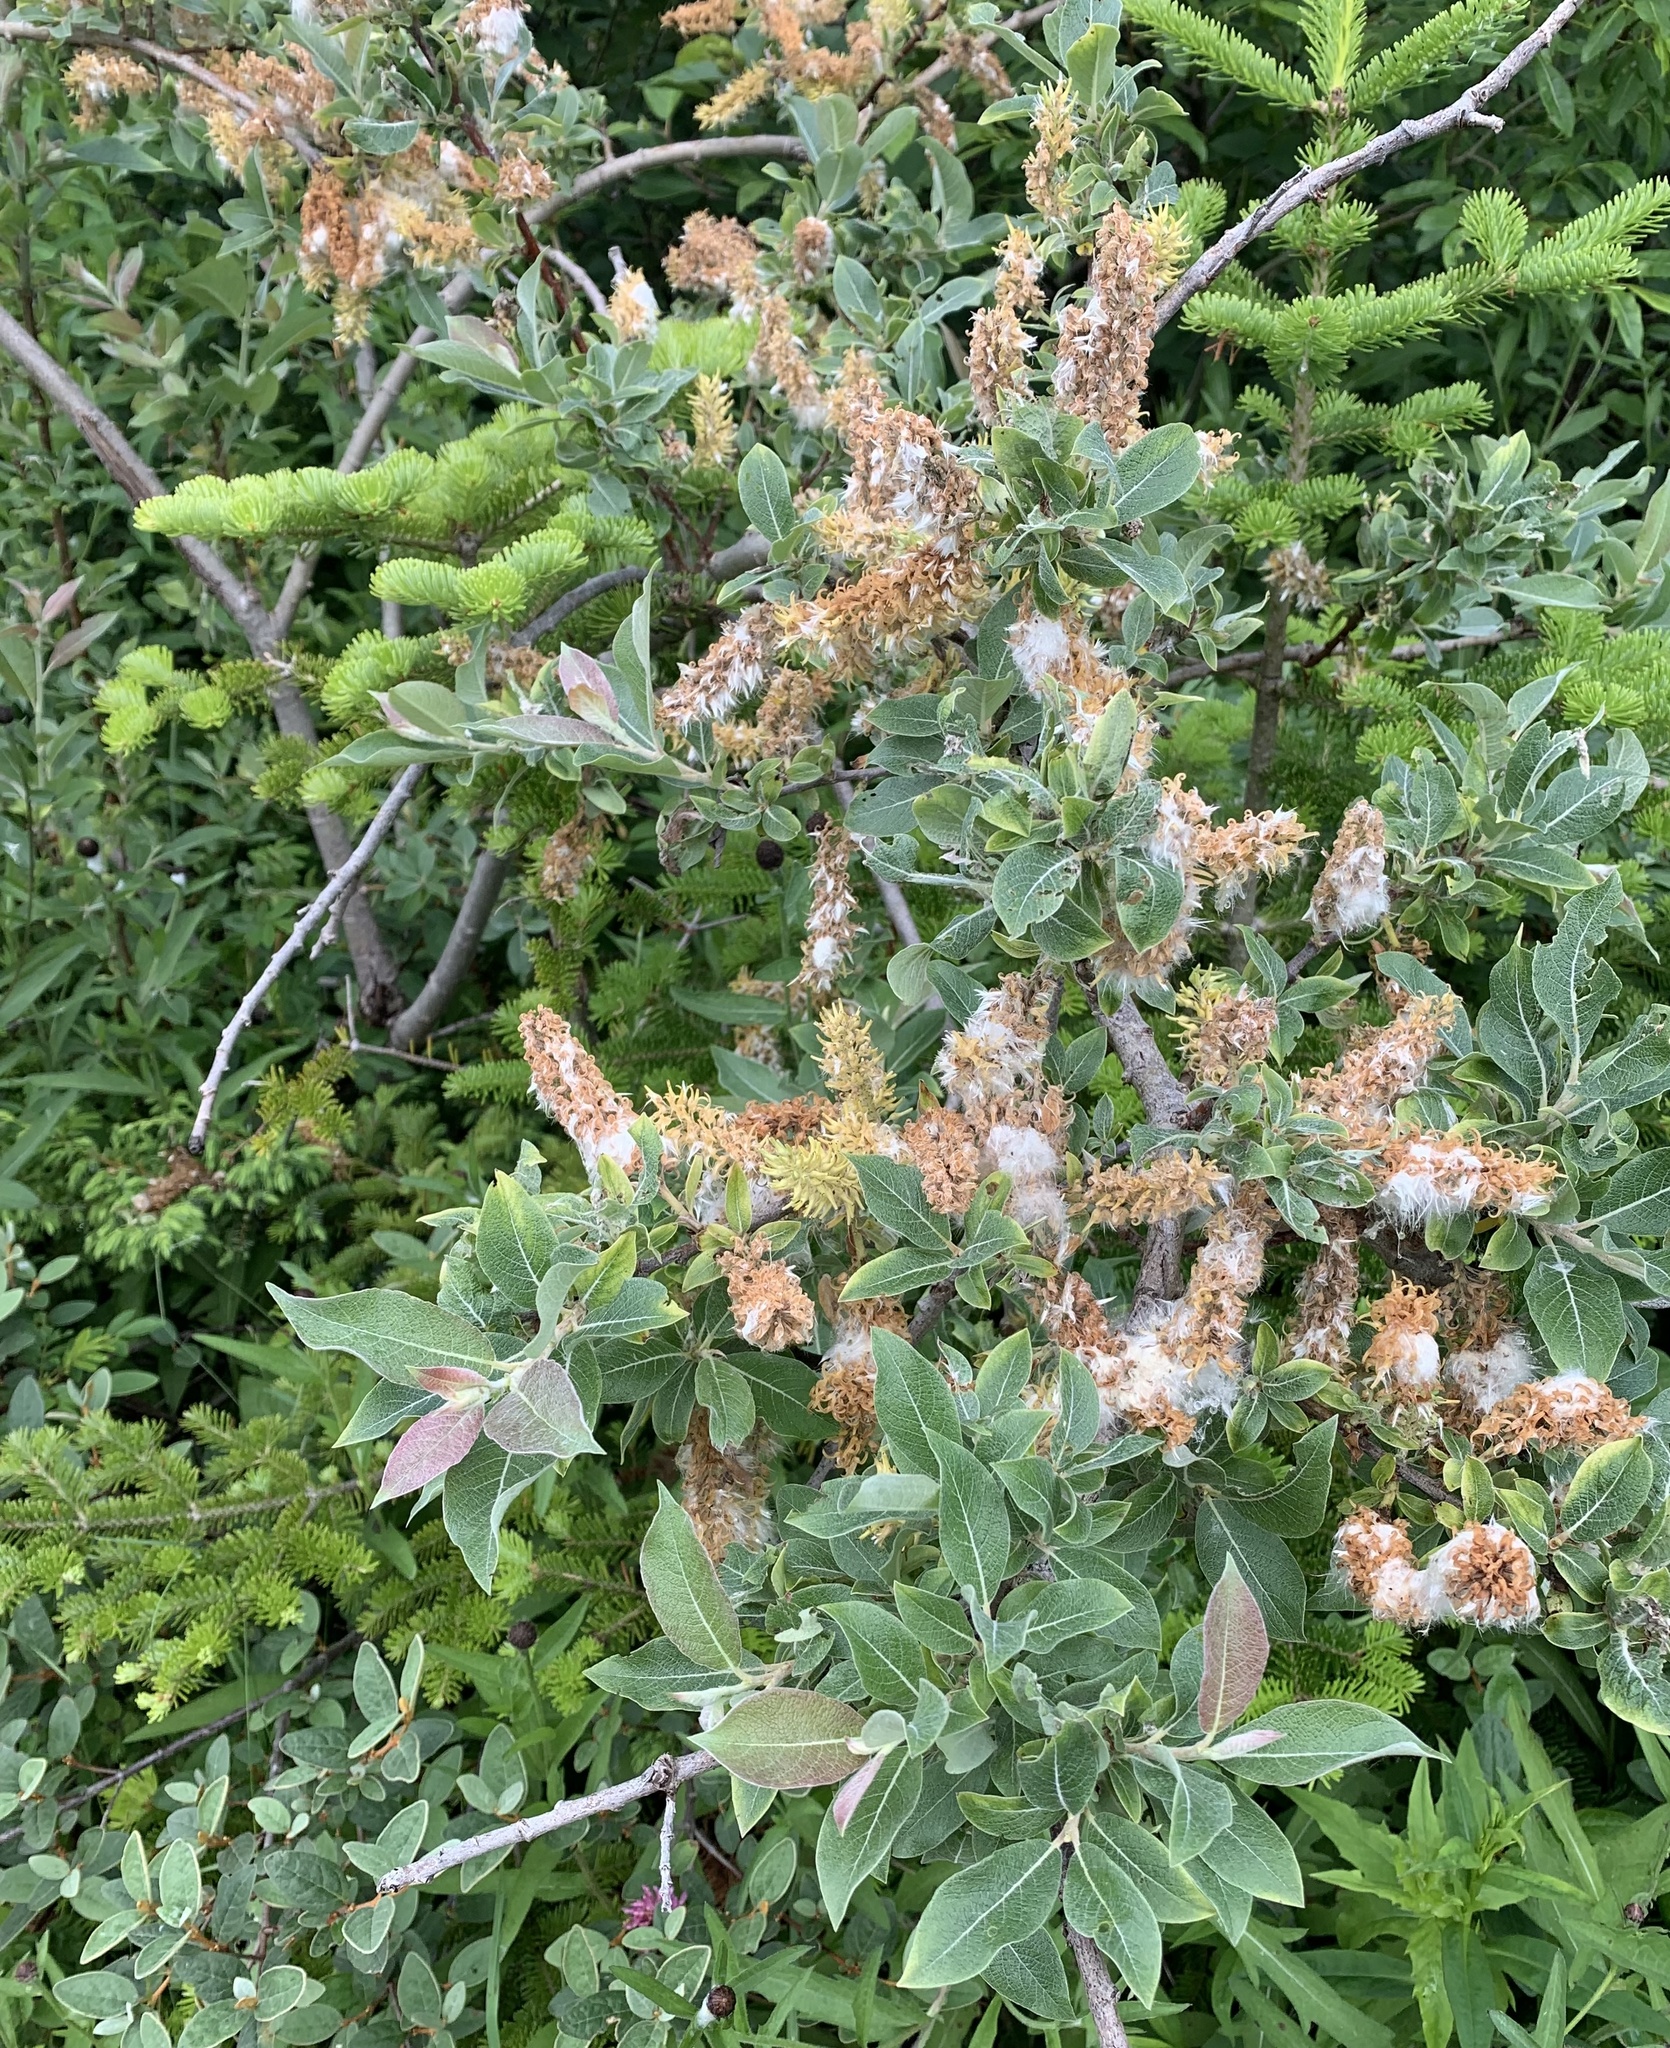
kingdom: Plantae
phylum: Tracheophyta
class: Magnoliopsida
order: Malpighiales
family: Salicaceae
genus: Salix
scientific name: Salix glauca
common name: Glaucous willow
